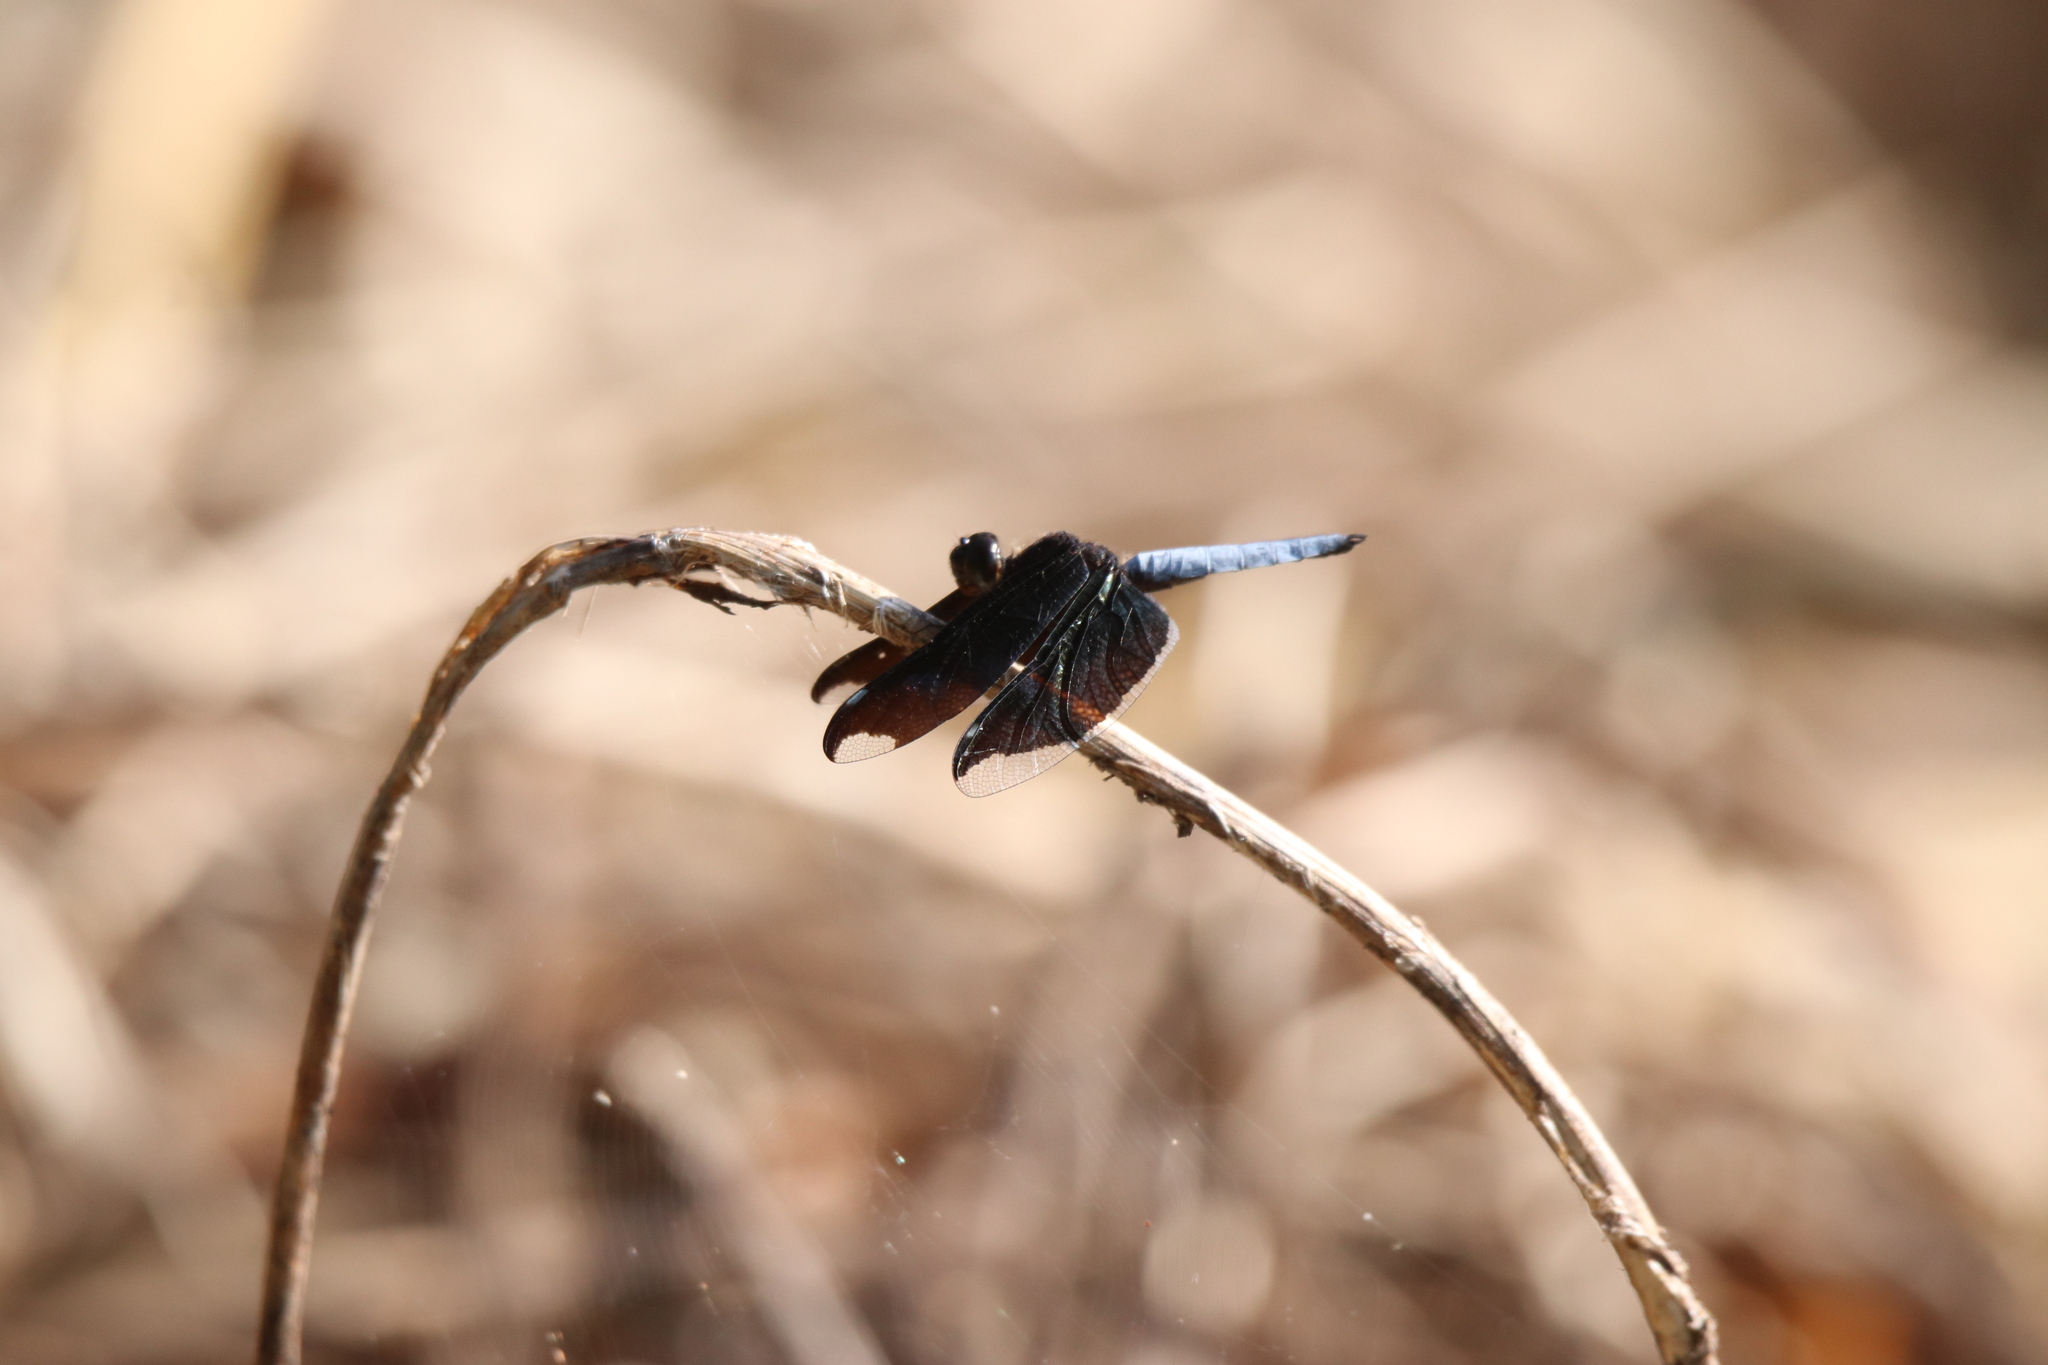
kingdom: Animalia
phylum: Arthropoda
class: Insecta
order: Odonata
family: Libellulidae
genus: Palpopleura
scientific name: Palpopleura lucia
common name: Lucia widow
